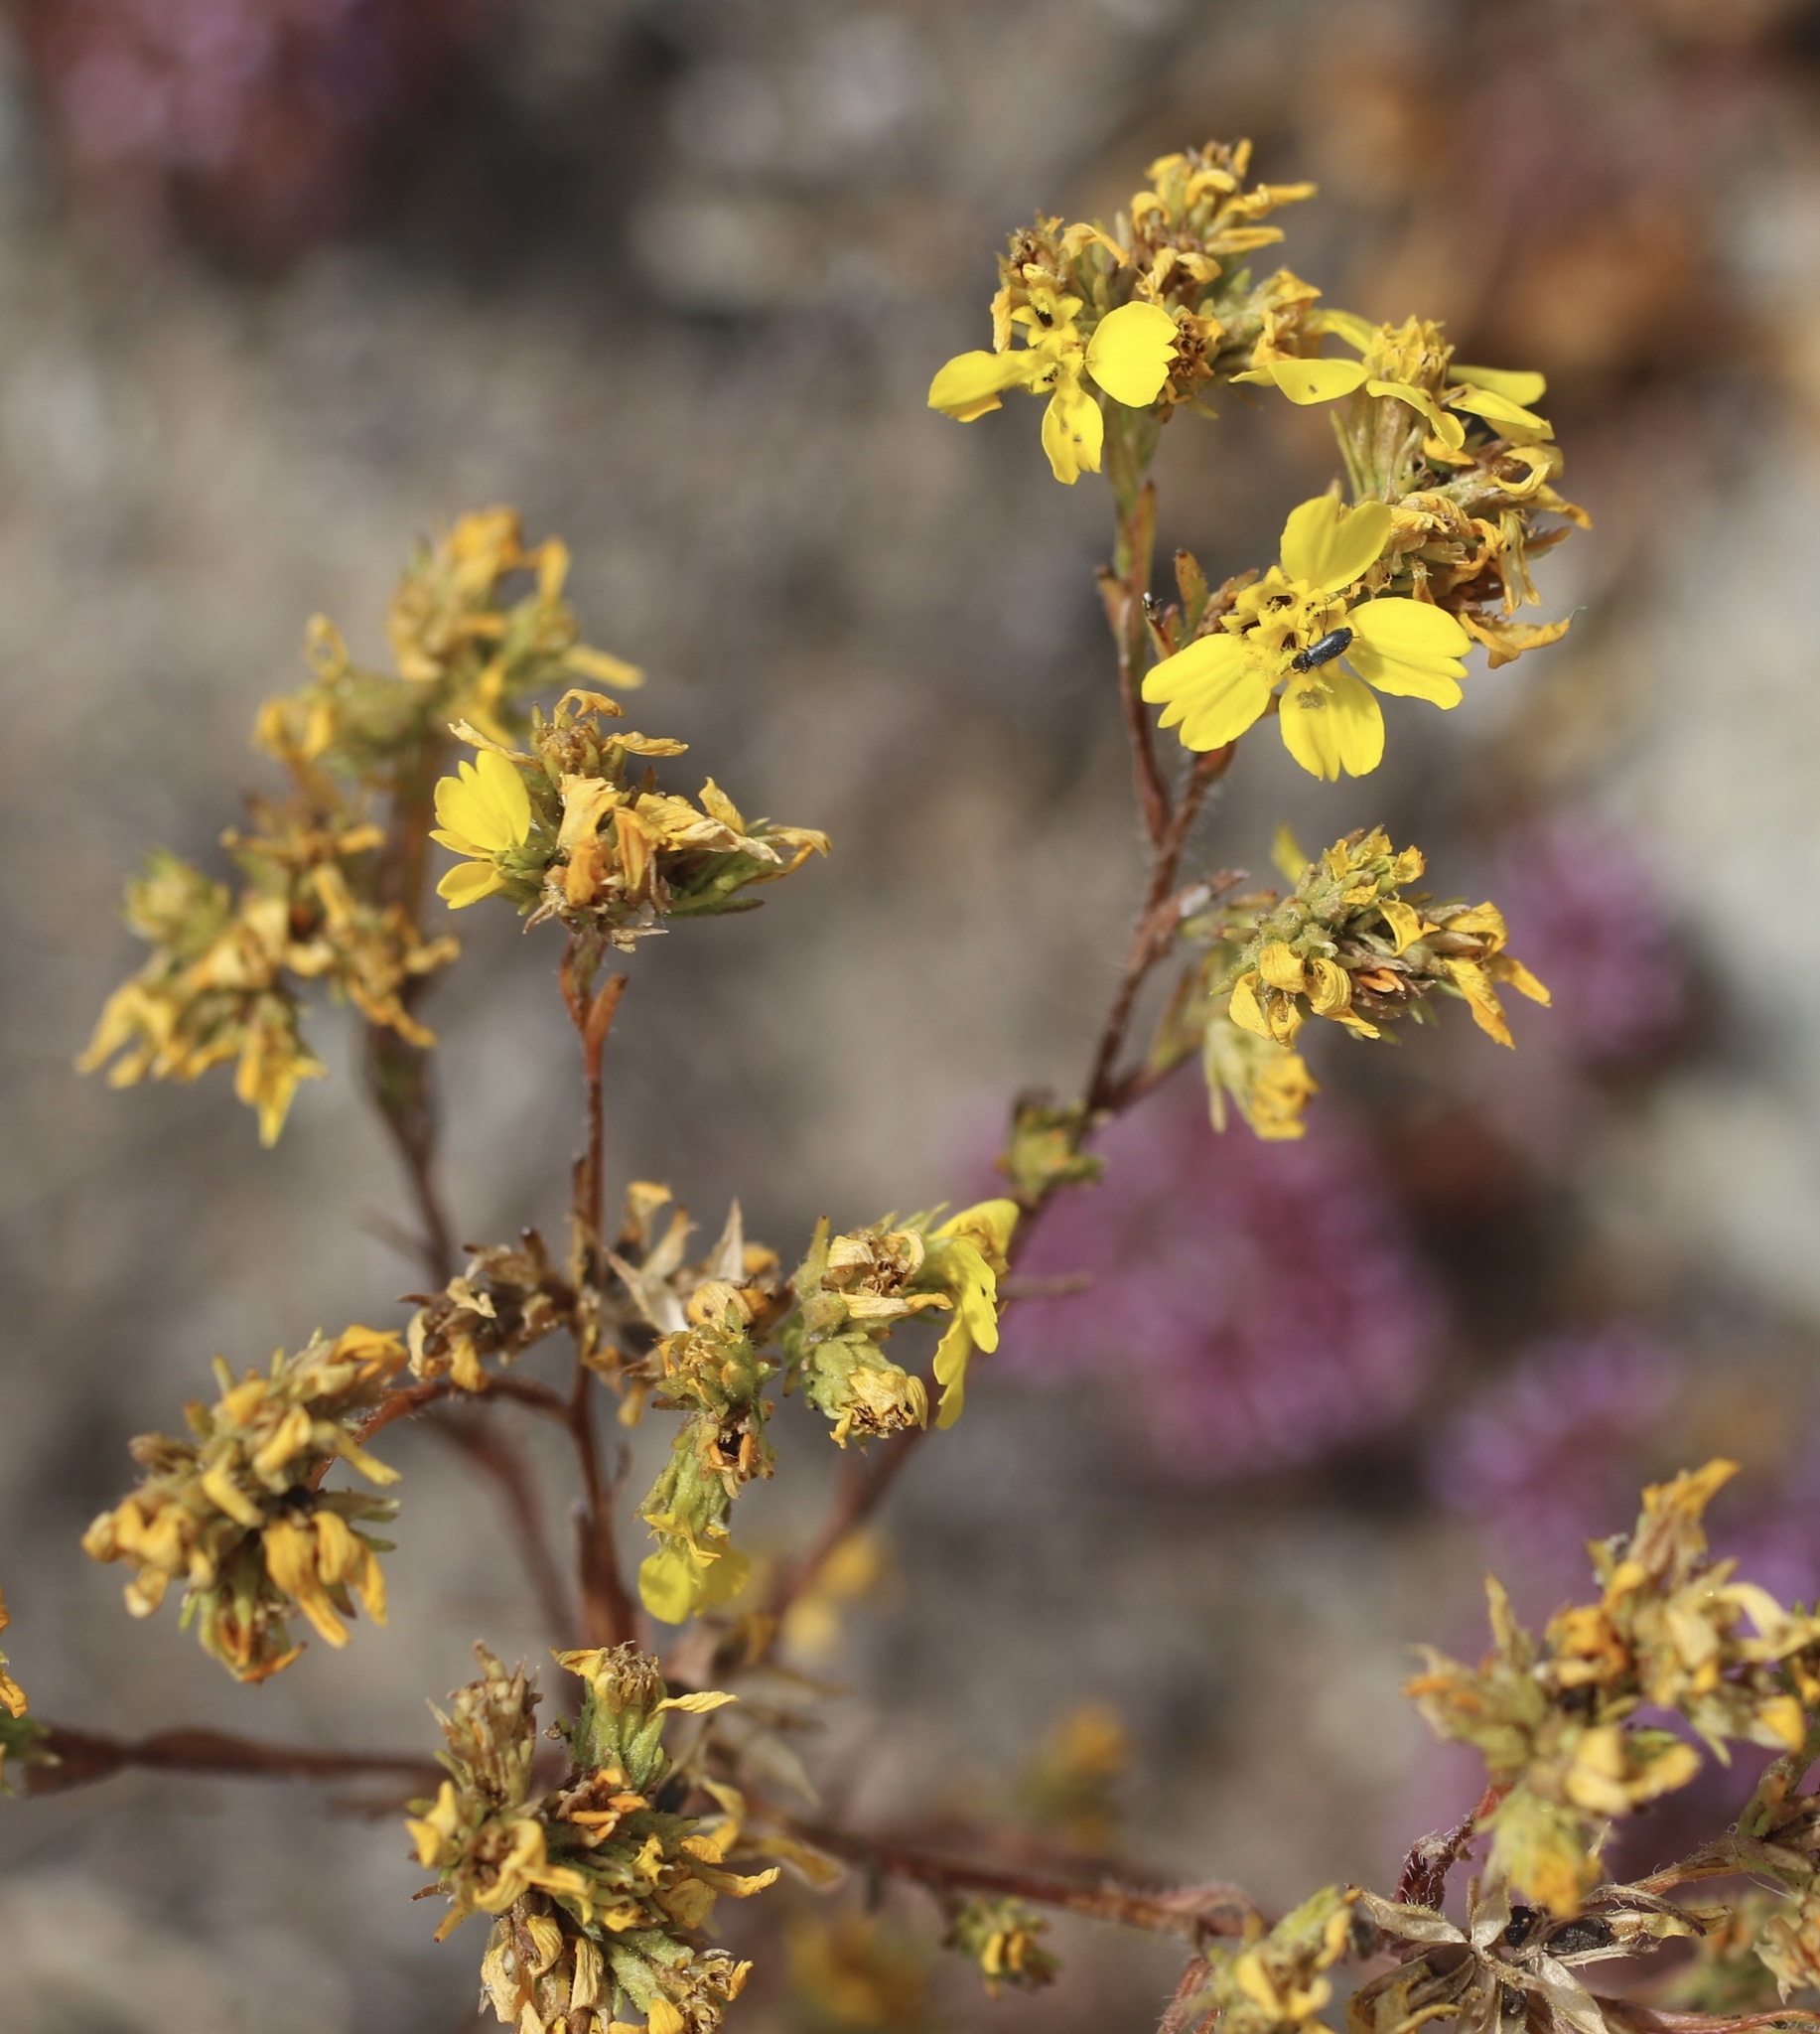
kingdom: Plantae
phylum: Tracheophyta
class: Magnoliopsida
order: Asterales
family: Asteraceae
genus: Deinandra
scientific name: Deinandra fasciculata
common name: Clustered tarweed
